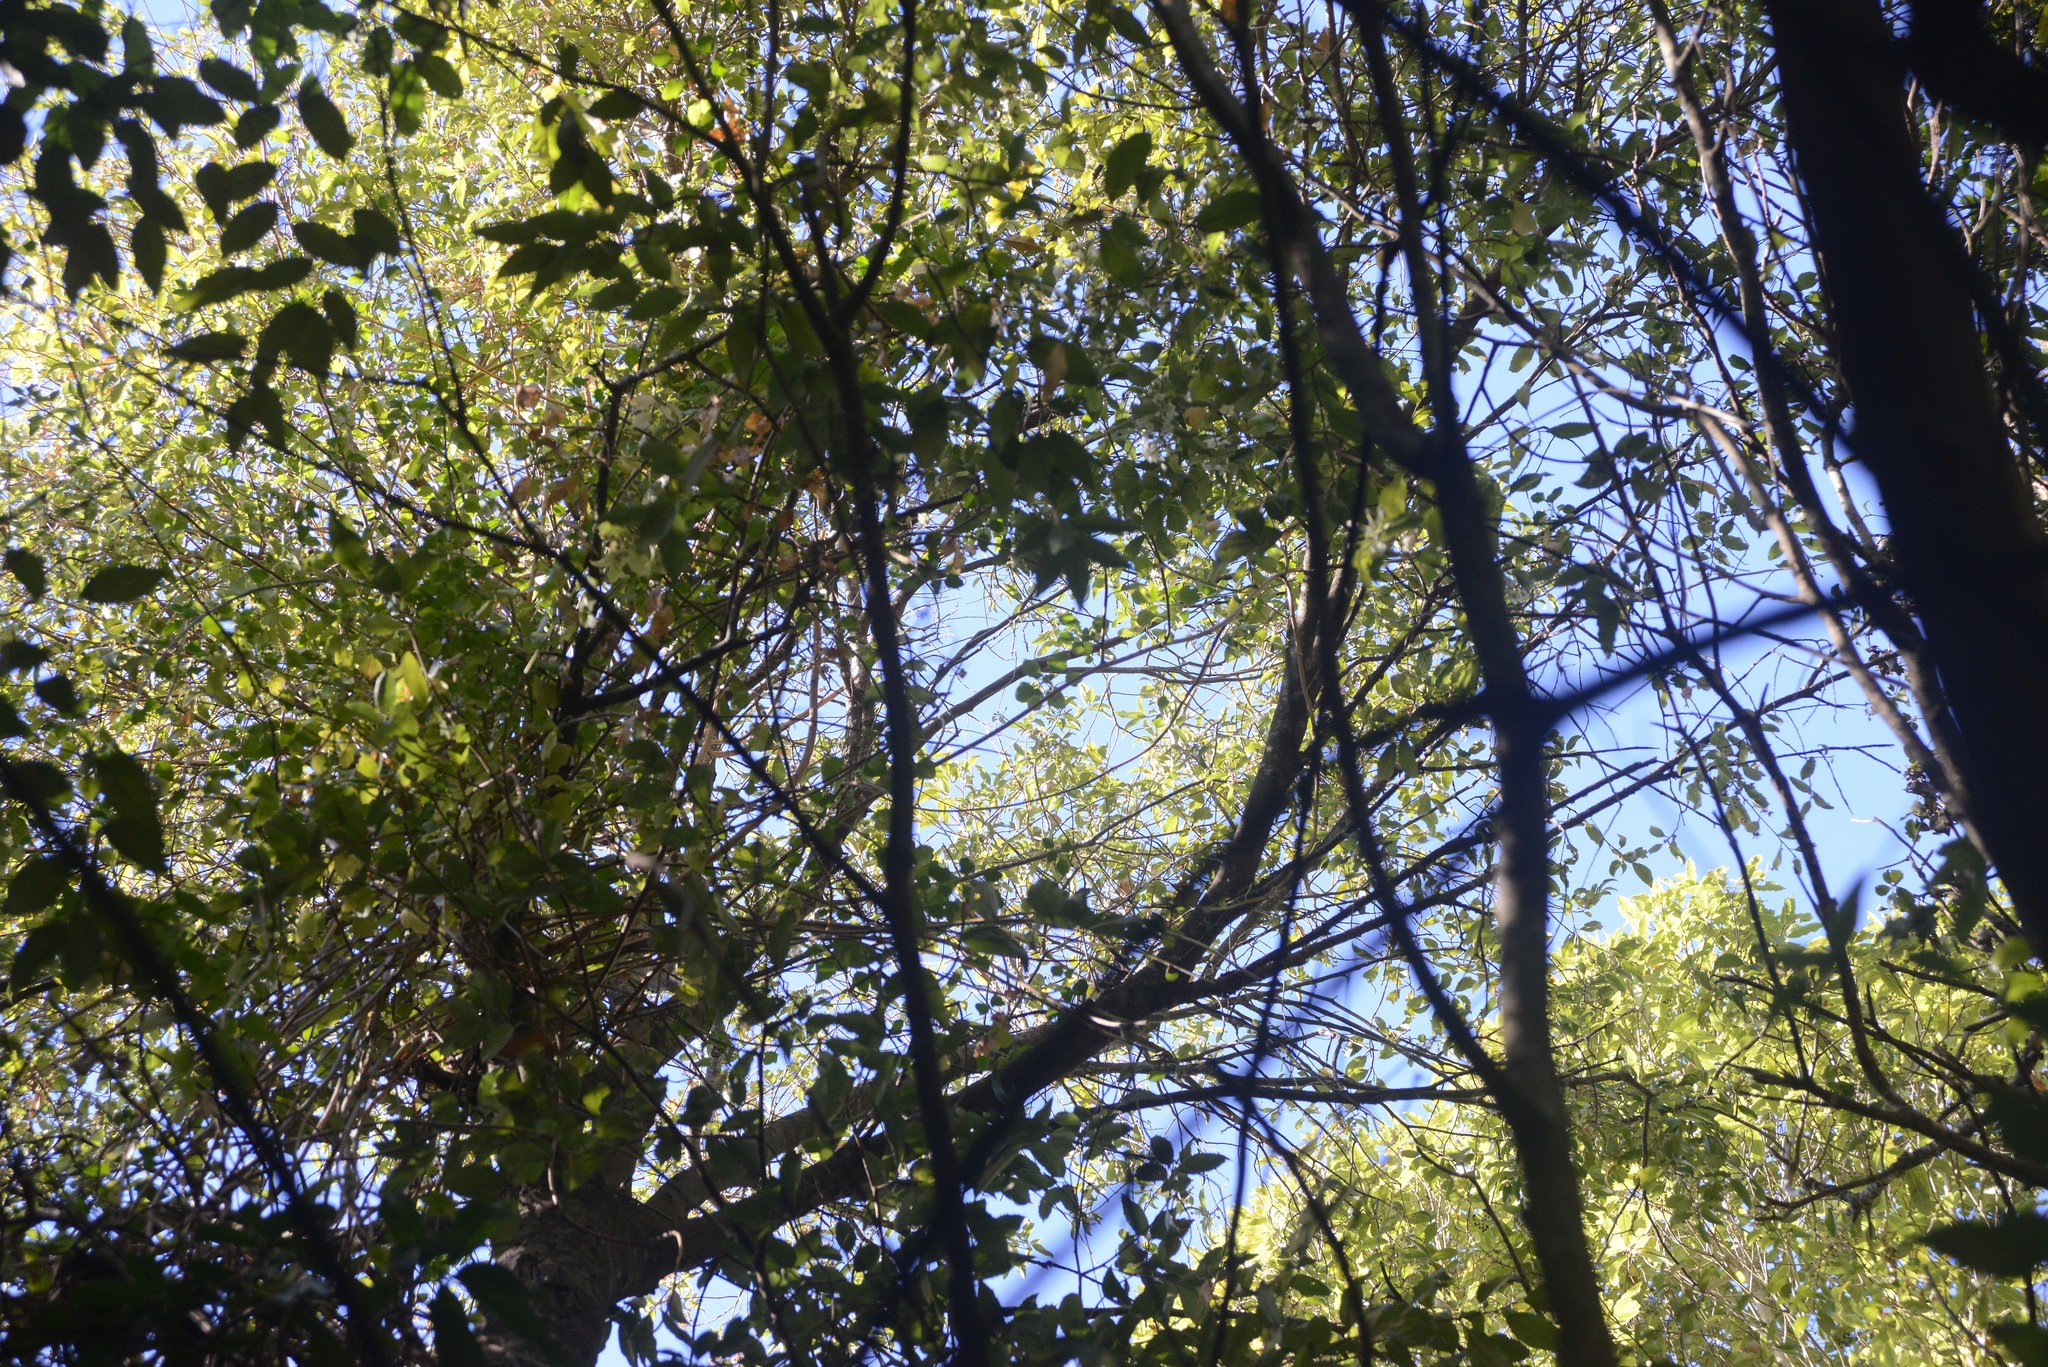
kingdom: Plantae
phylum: Tracheophyta
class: Magnoliopsida
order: Asterales
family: Asteraceae
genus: Senecio
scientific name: Senecio angulatus
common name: Climbing groundsel
